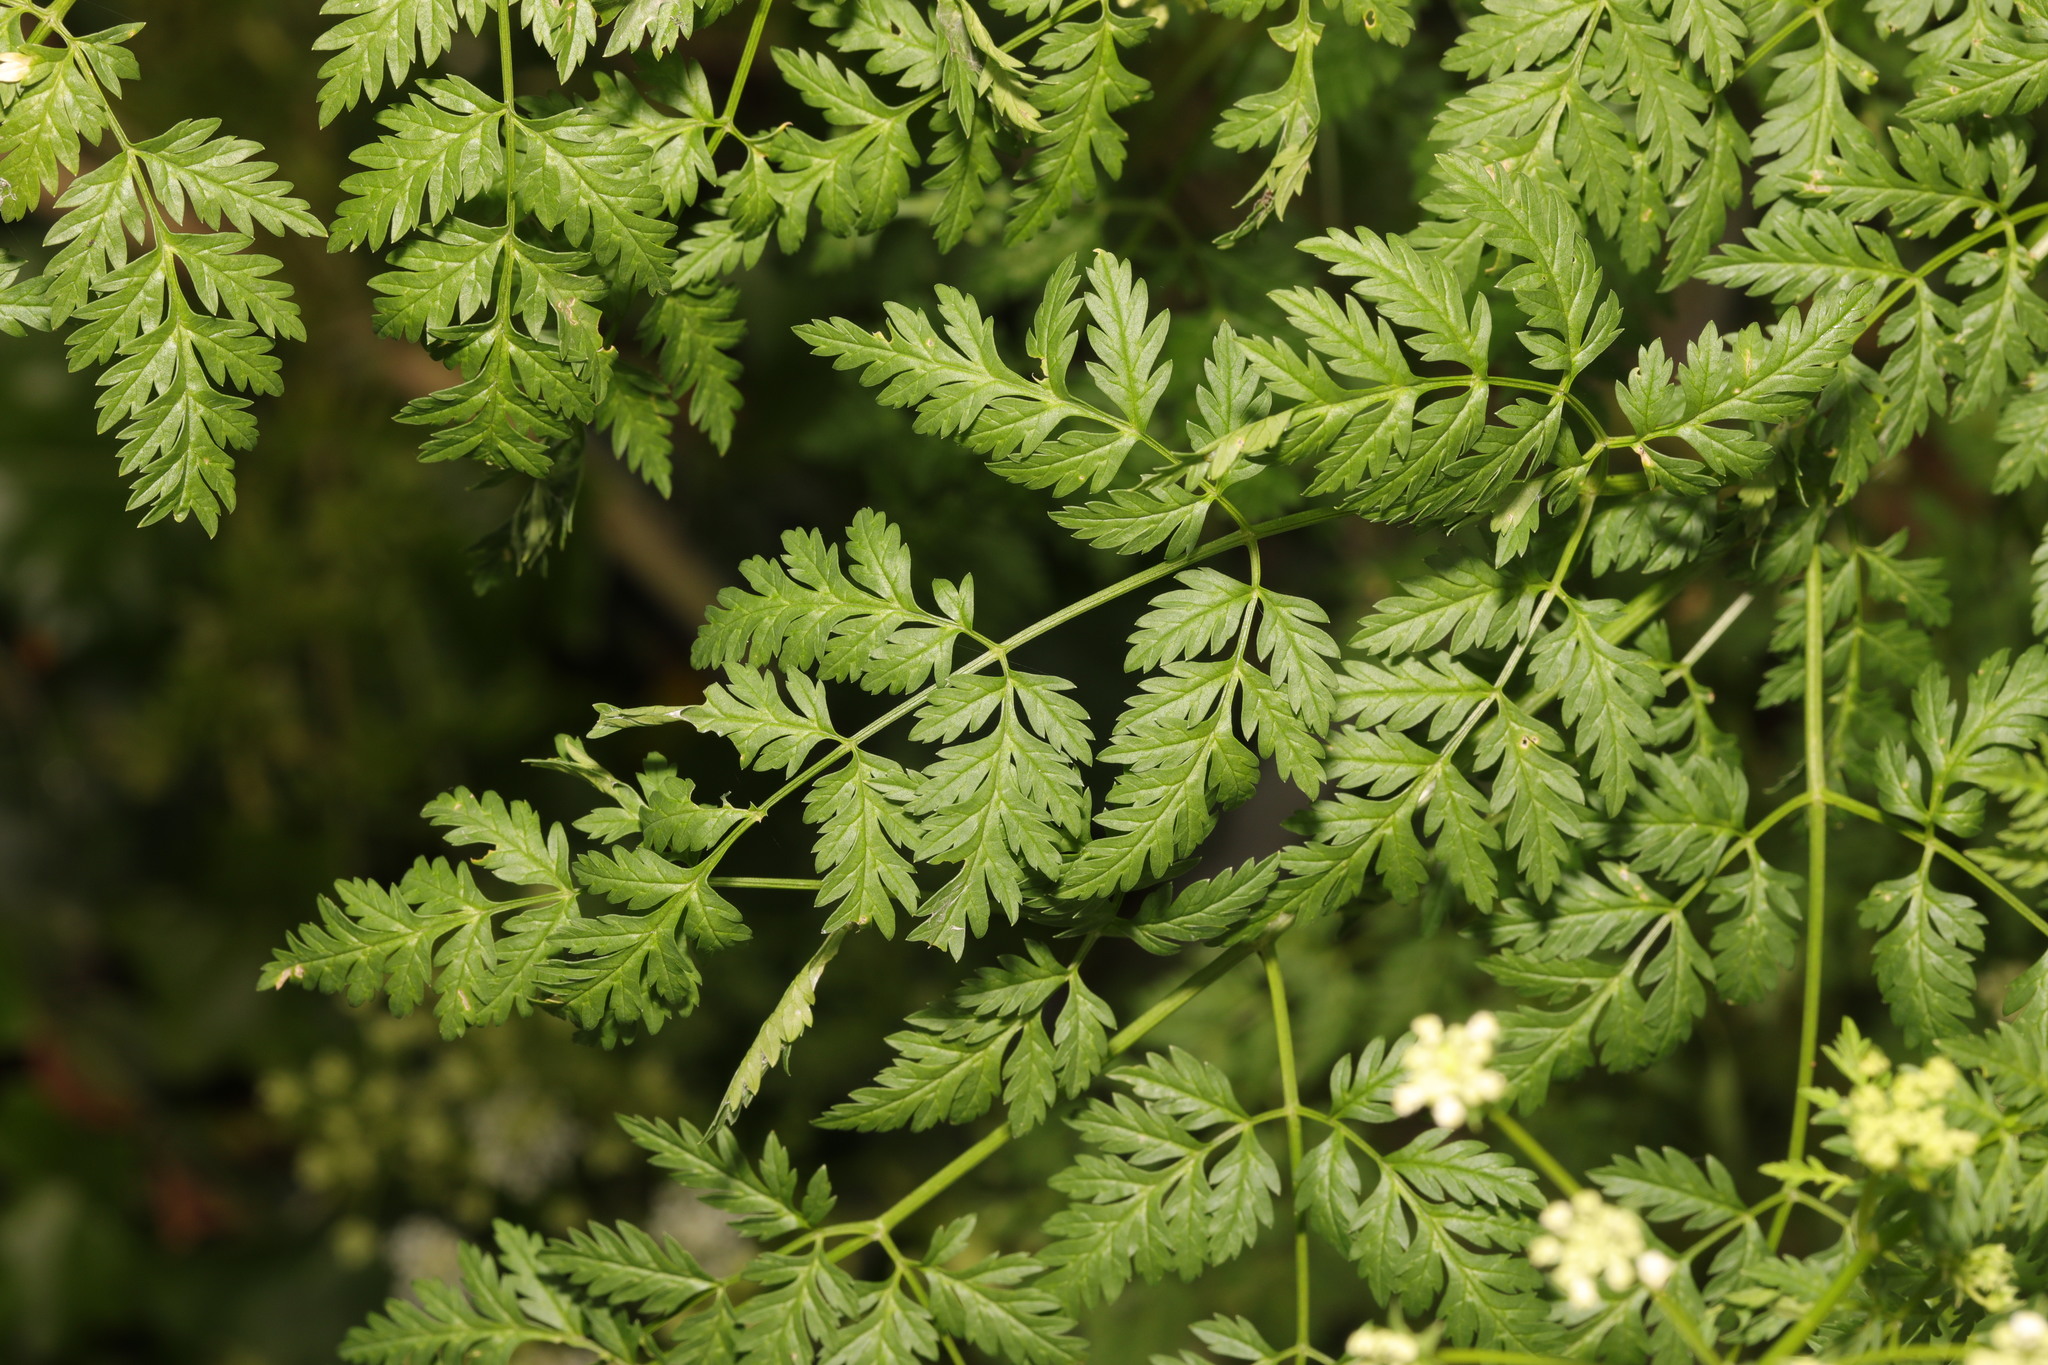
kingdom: Plantae
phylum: Tracheophyta
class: Magnoliopsida
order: Apiales
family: Apiaceae
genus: Torilis
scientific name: Torilis japonica
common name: Upright hedge-parsley
